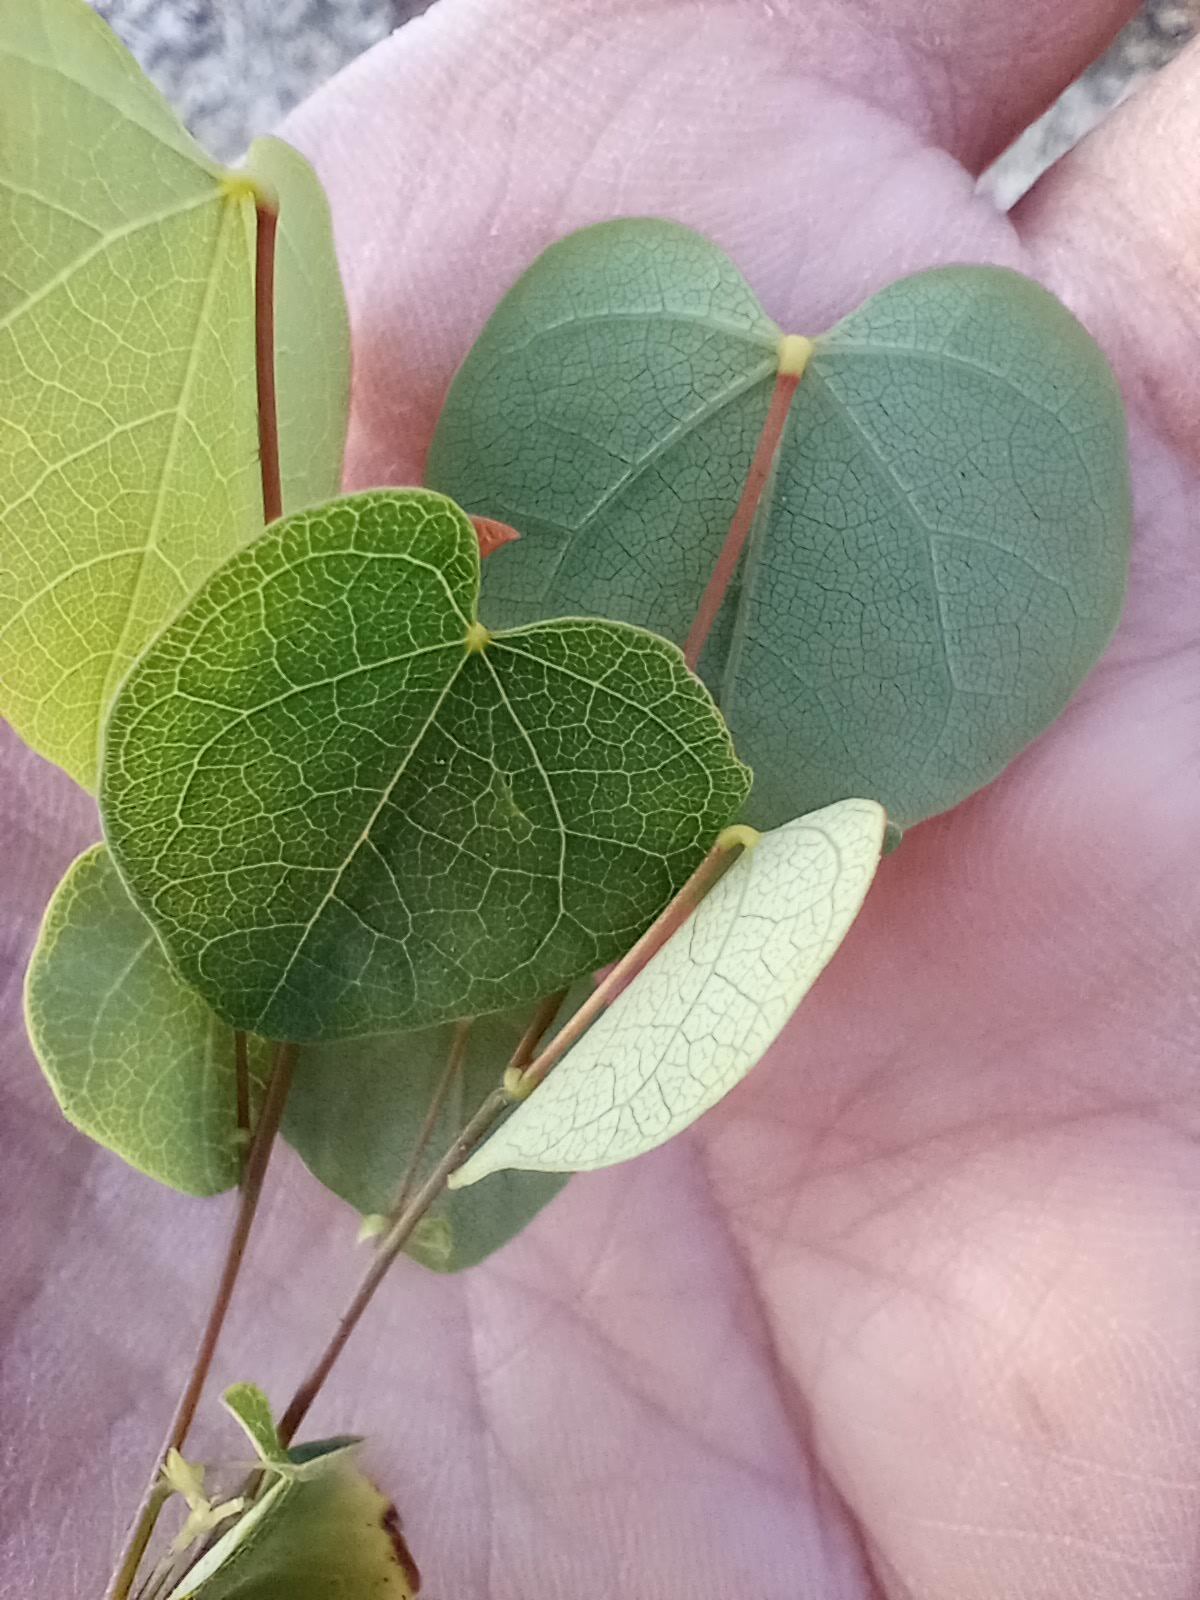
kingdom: Plantae
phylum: Tracheophyta
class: Magnoliopsida
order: Fabales
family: Fabaceae
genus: Cercis
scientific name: Cercis occidentalis
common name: California redbud
